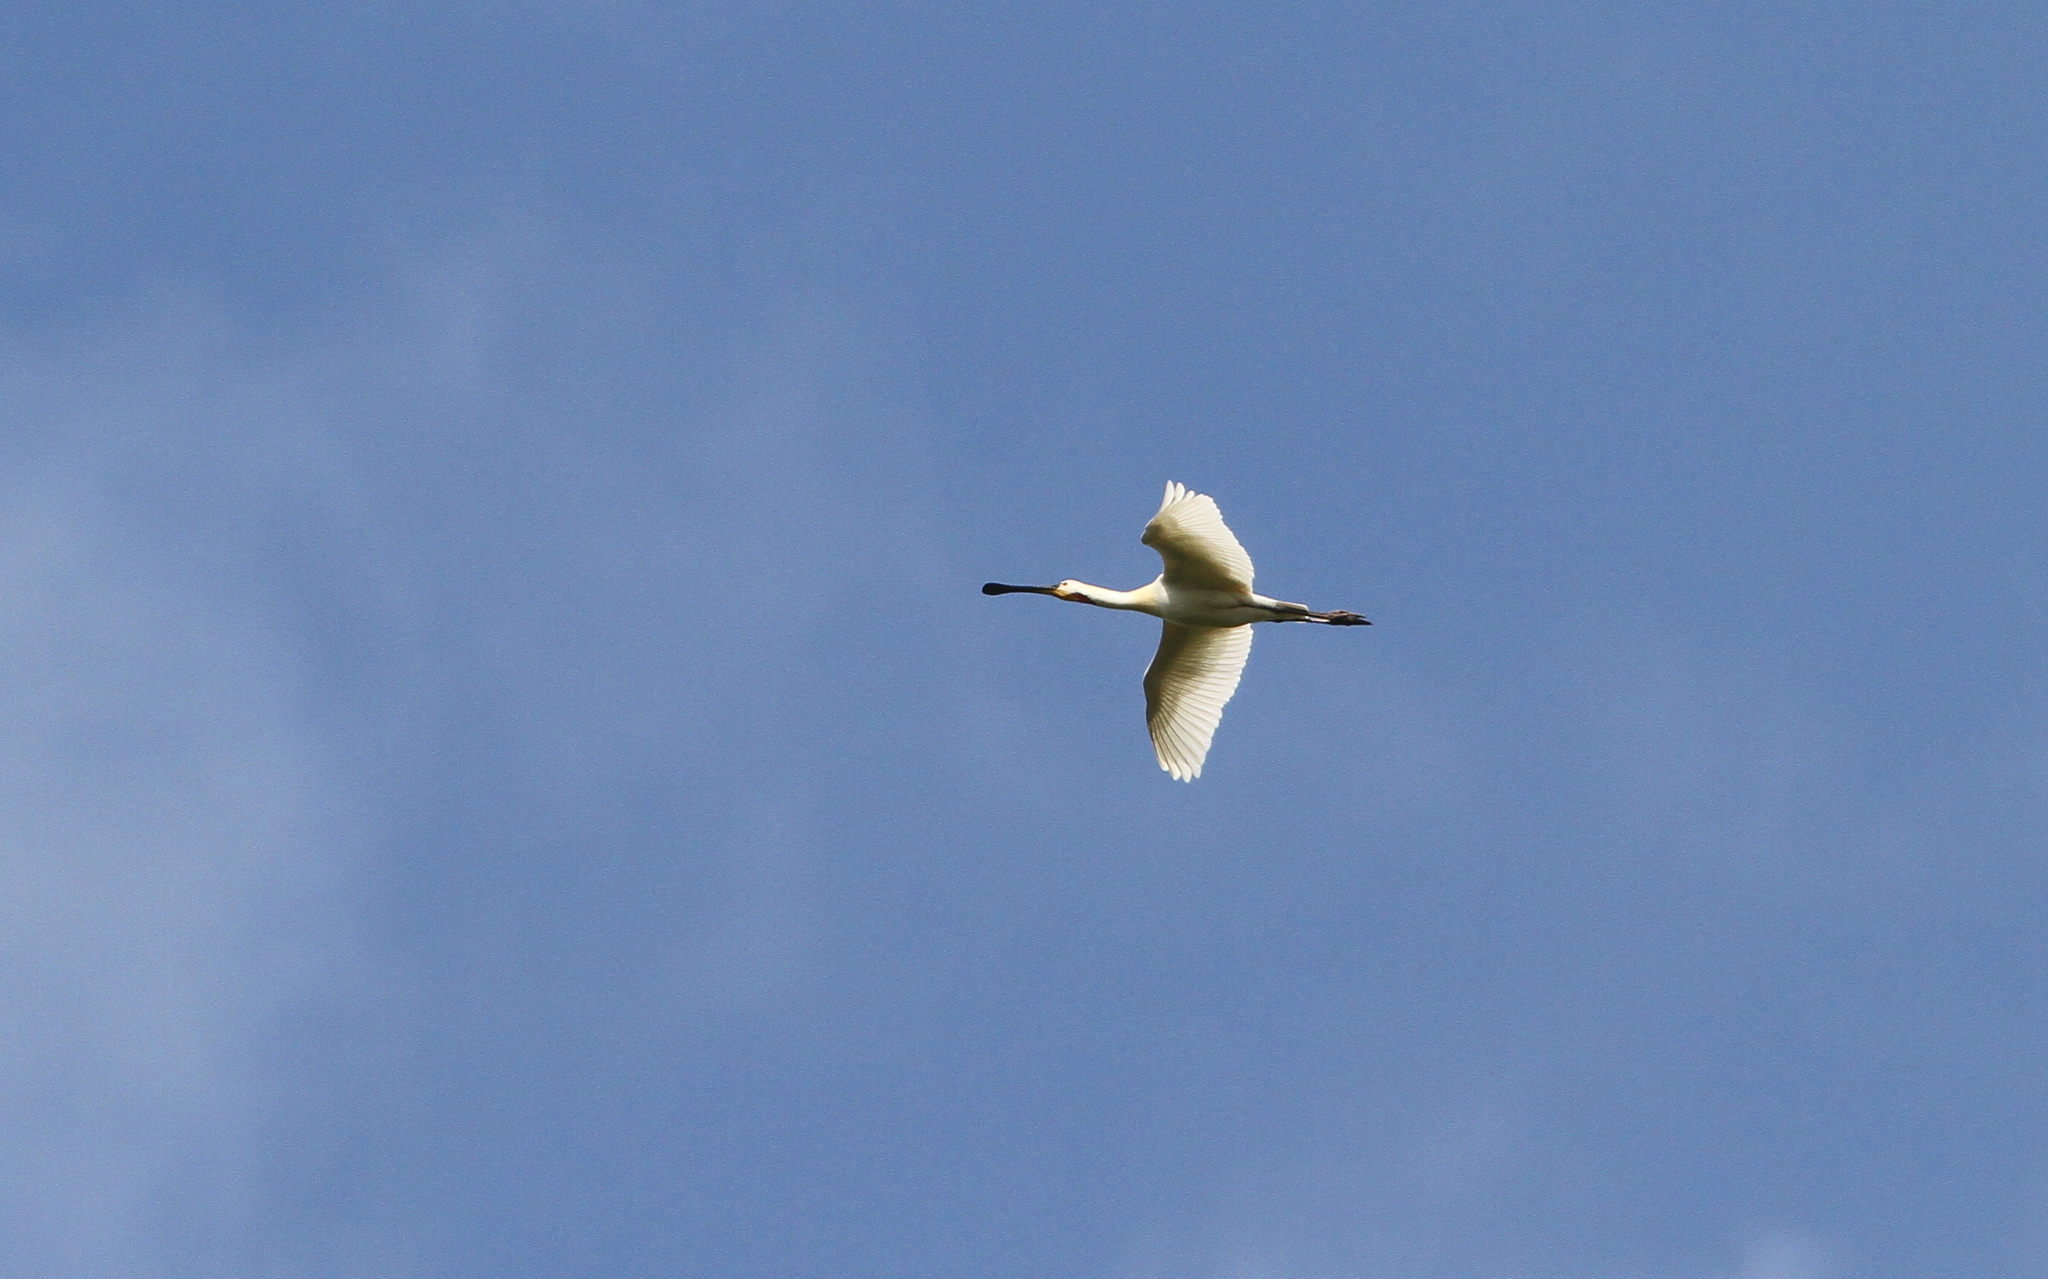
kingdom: Animalia
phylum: Chordata
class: Aves
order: Pelecaniformes
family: Threskiornithidae
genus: Platalea
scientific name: Platalea leucorodia
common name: Eurasian spoonbill
